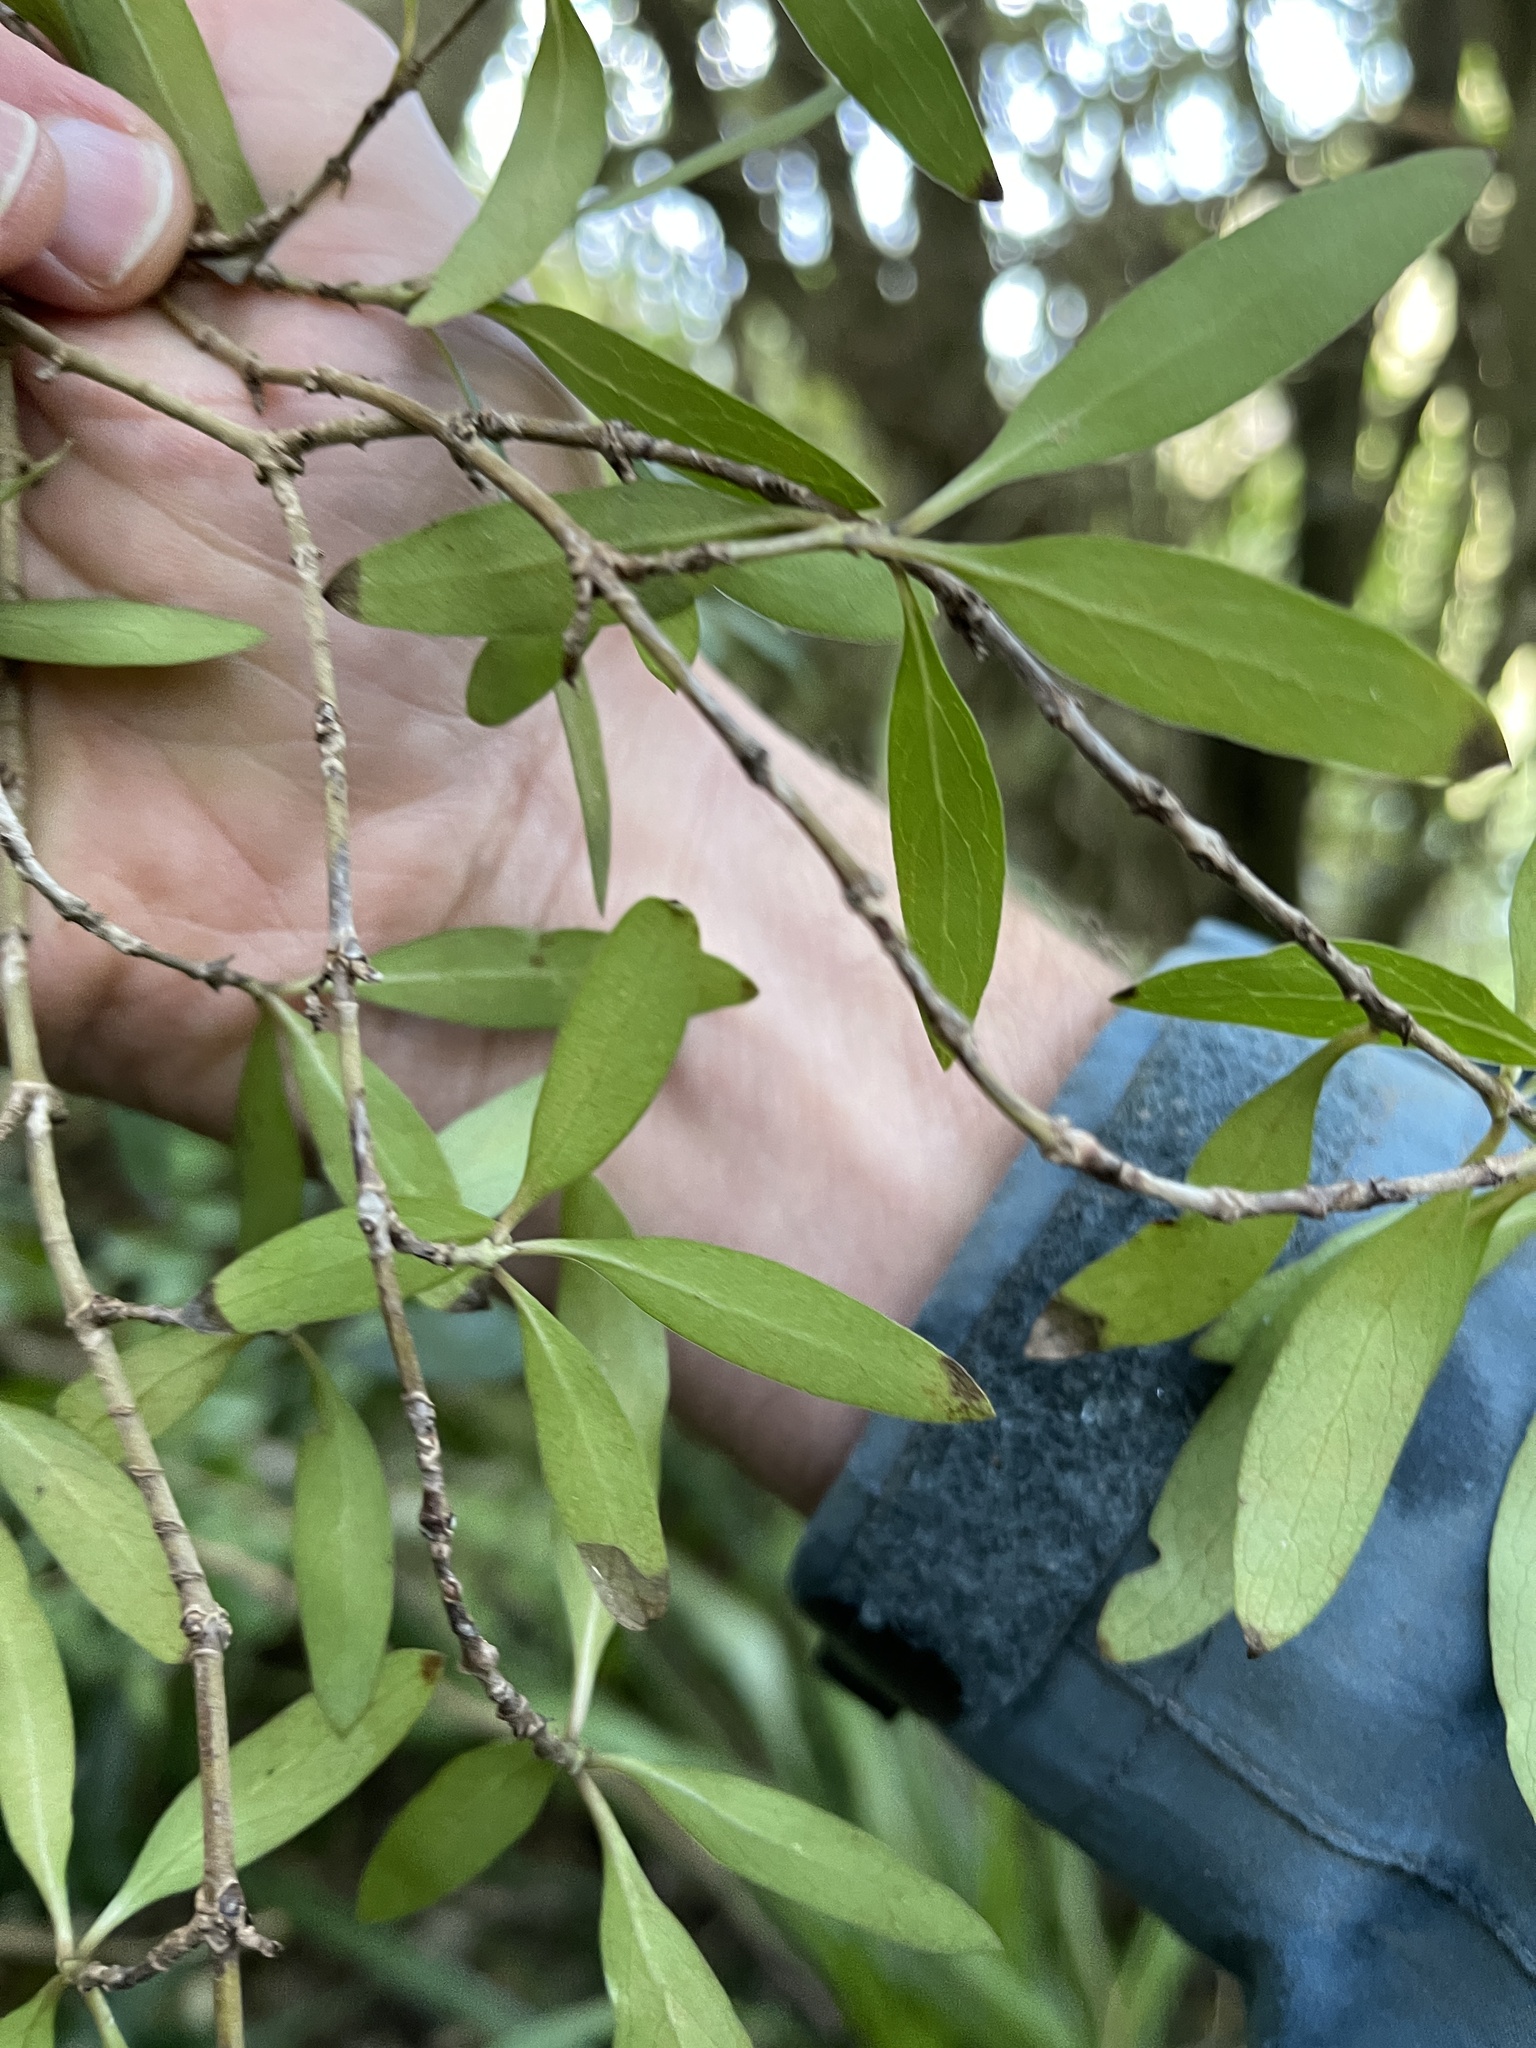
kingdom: Plantae
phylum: Tracheophyta
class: Magnoliopsida
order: Celastrales
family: Celastraceae
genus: Maytenus
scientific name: Maytenus boaria
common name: Mayten
